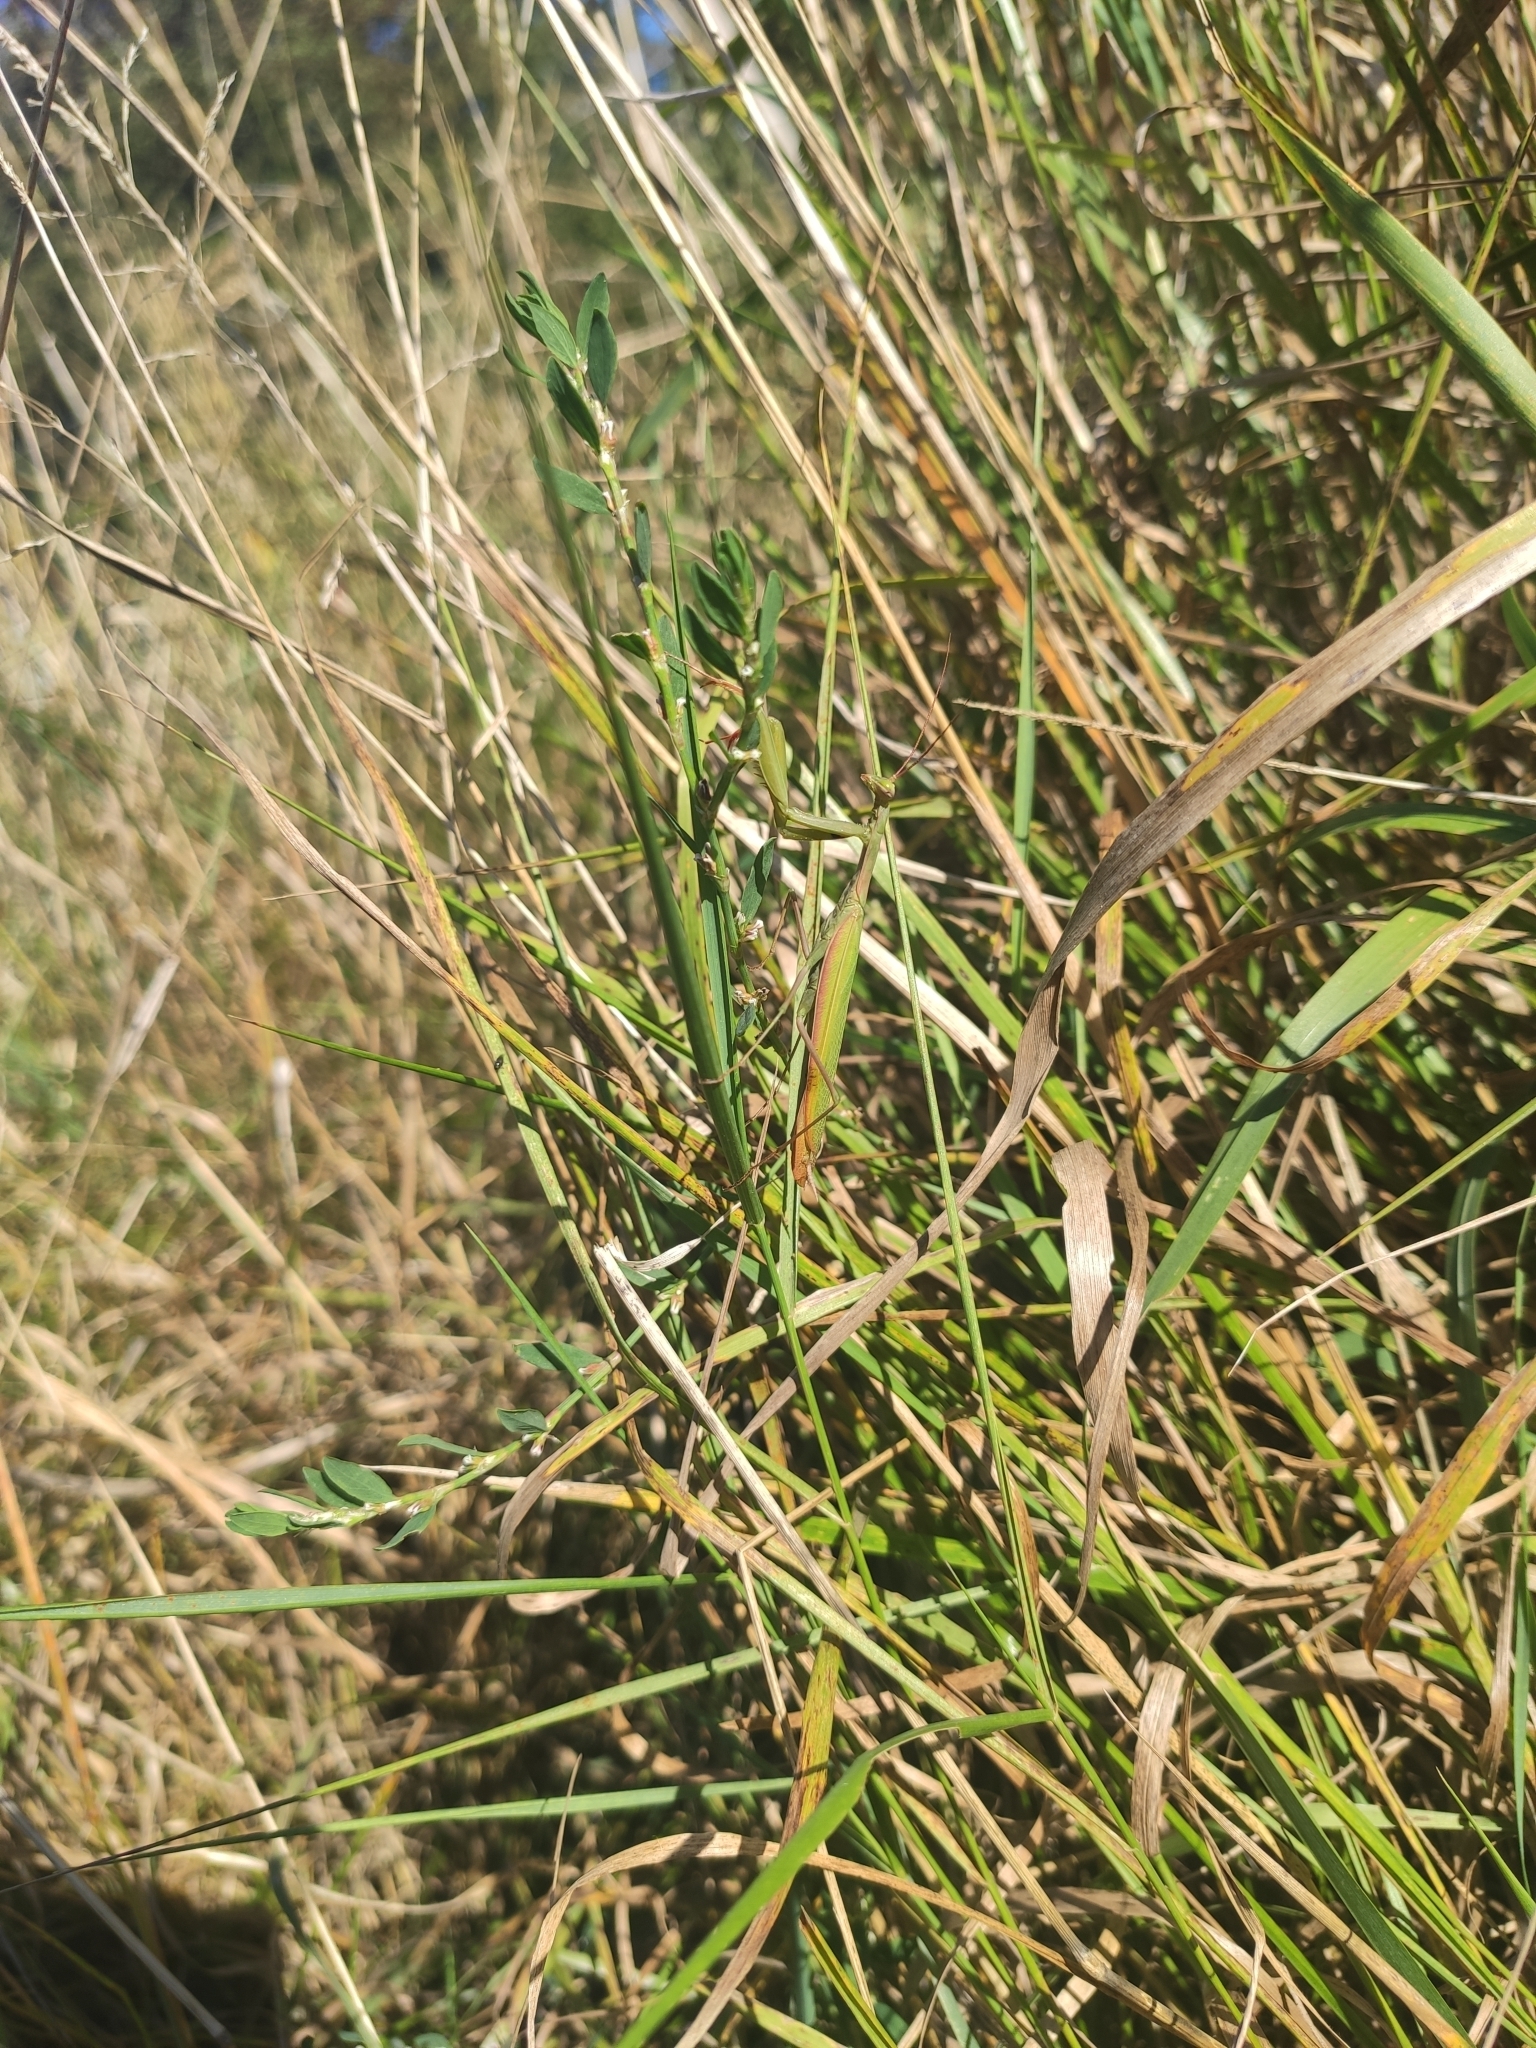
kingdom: Animalia
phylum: Arthropoda
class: Insecta
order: Mantodea
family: Mantidae
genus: Mantis
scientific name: Mantis religiosa
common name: Praying mantis
